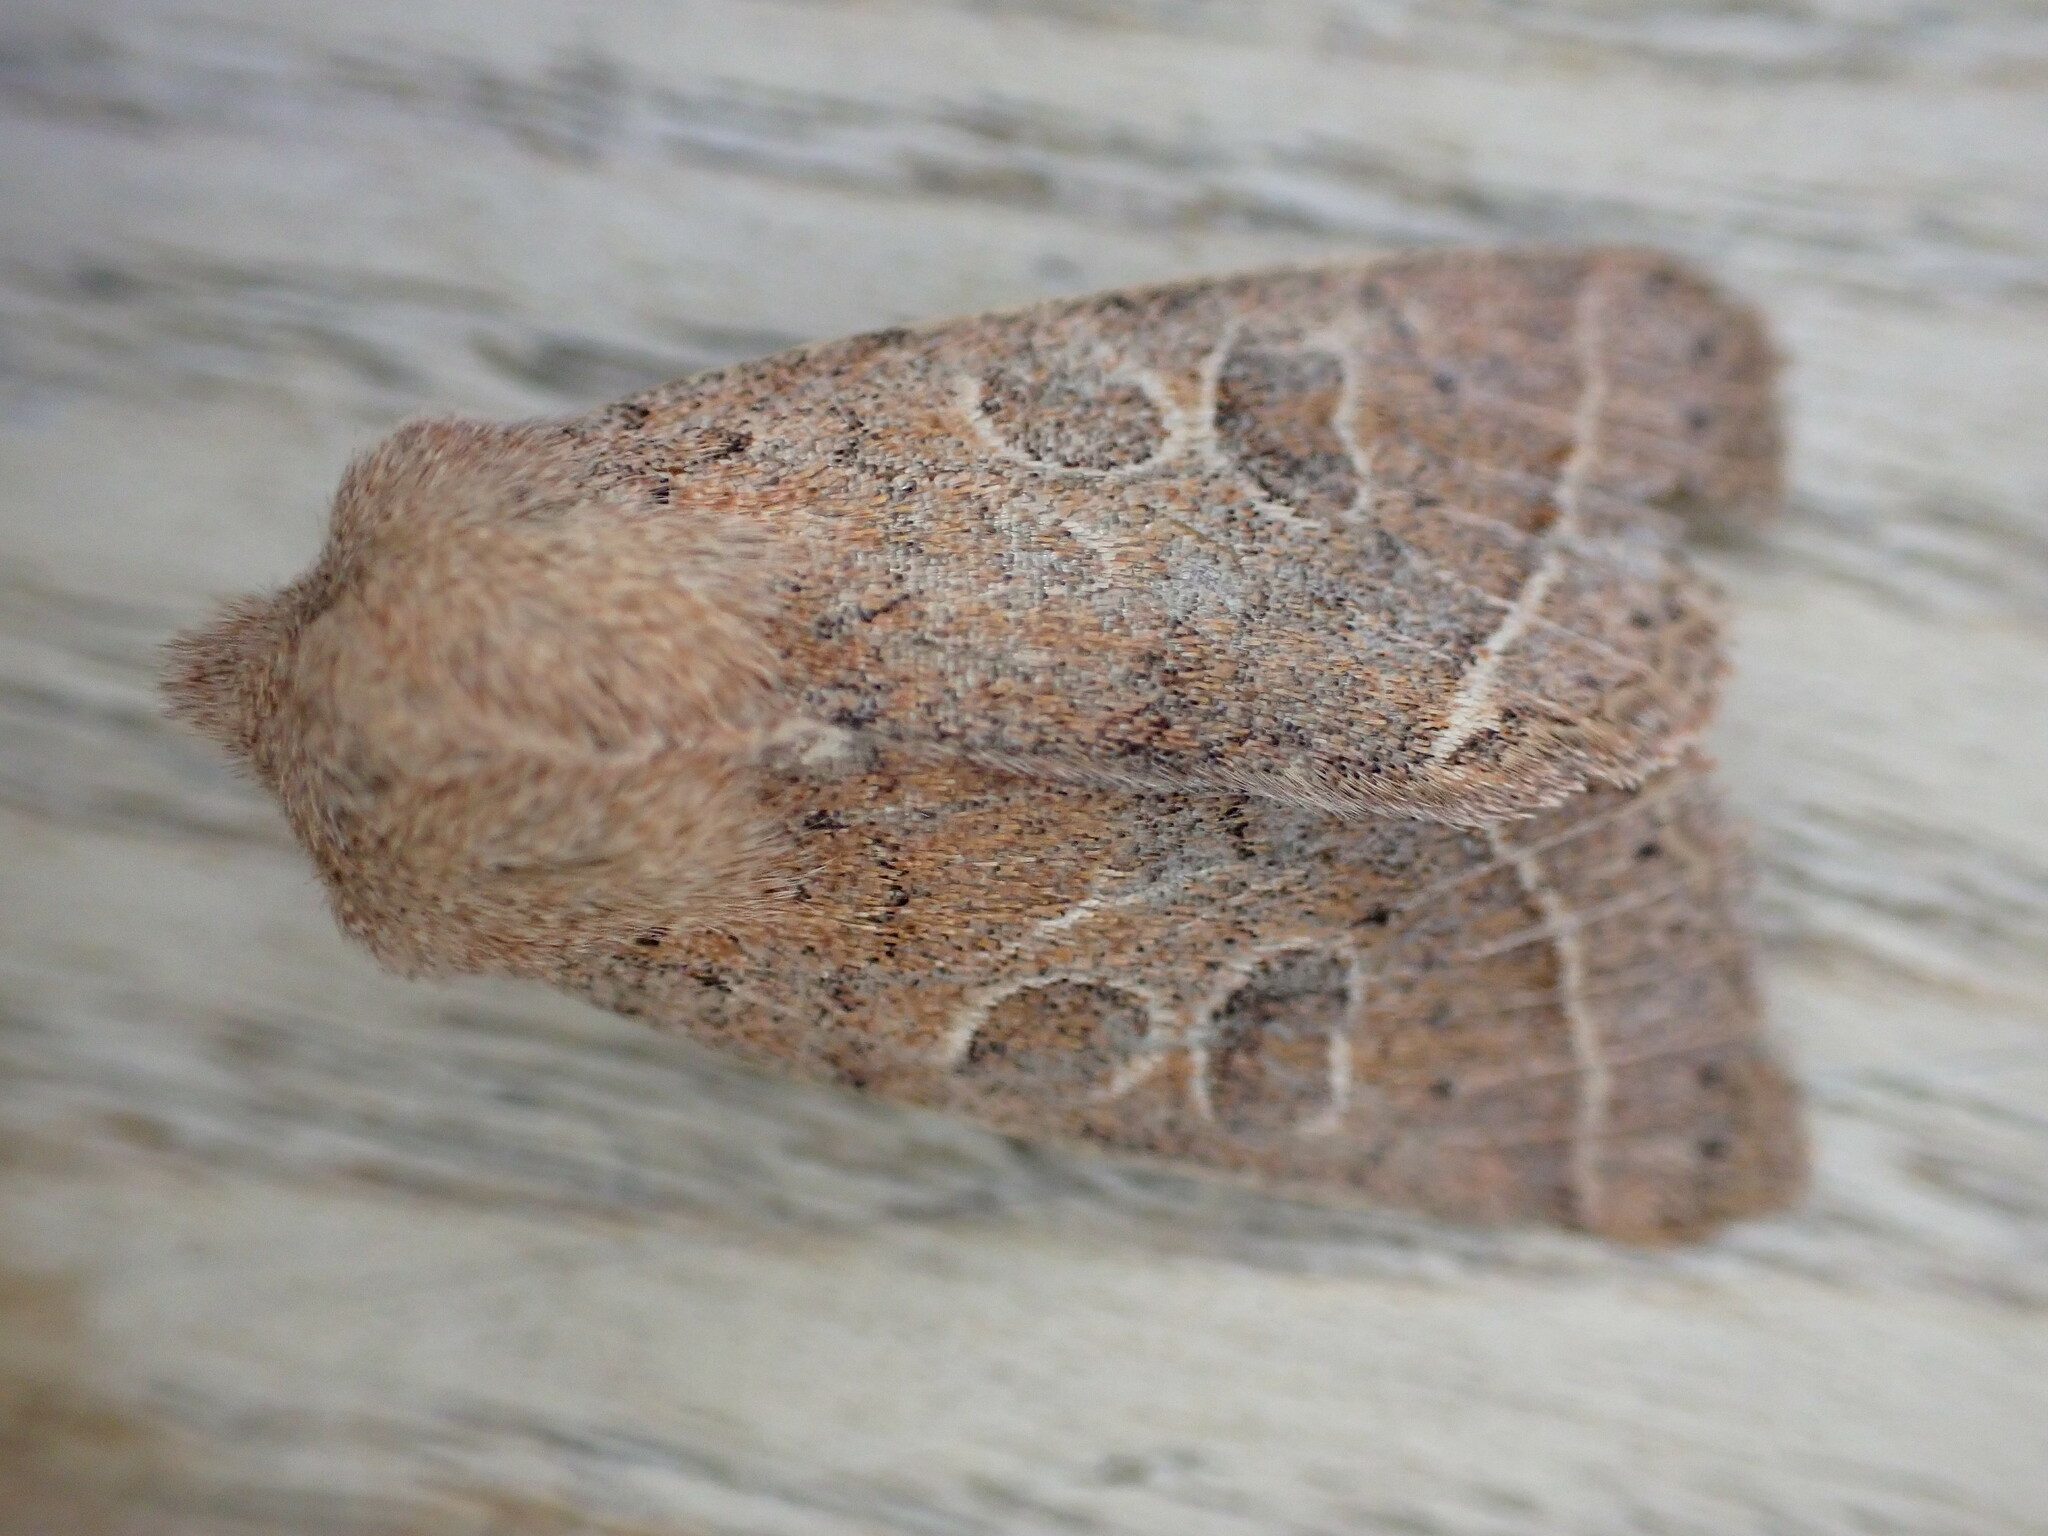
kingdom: Animalia
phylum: Arthropoda
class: Insecta
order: Lepidoptera
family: Noctuidae
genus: Orthosia
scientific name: Orthosia cerasi
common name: Common quaker
